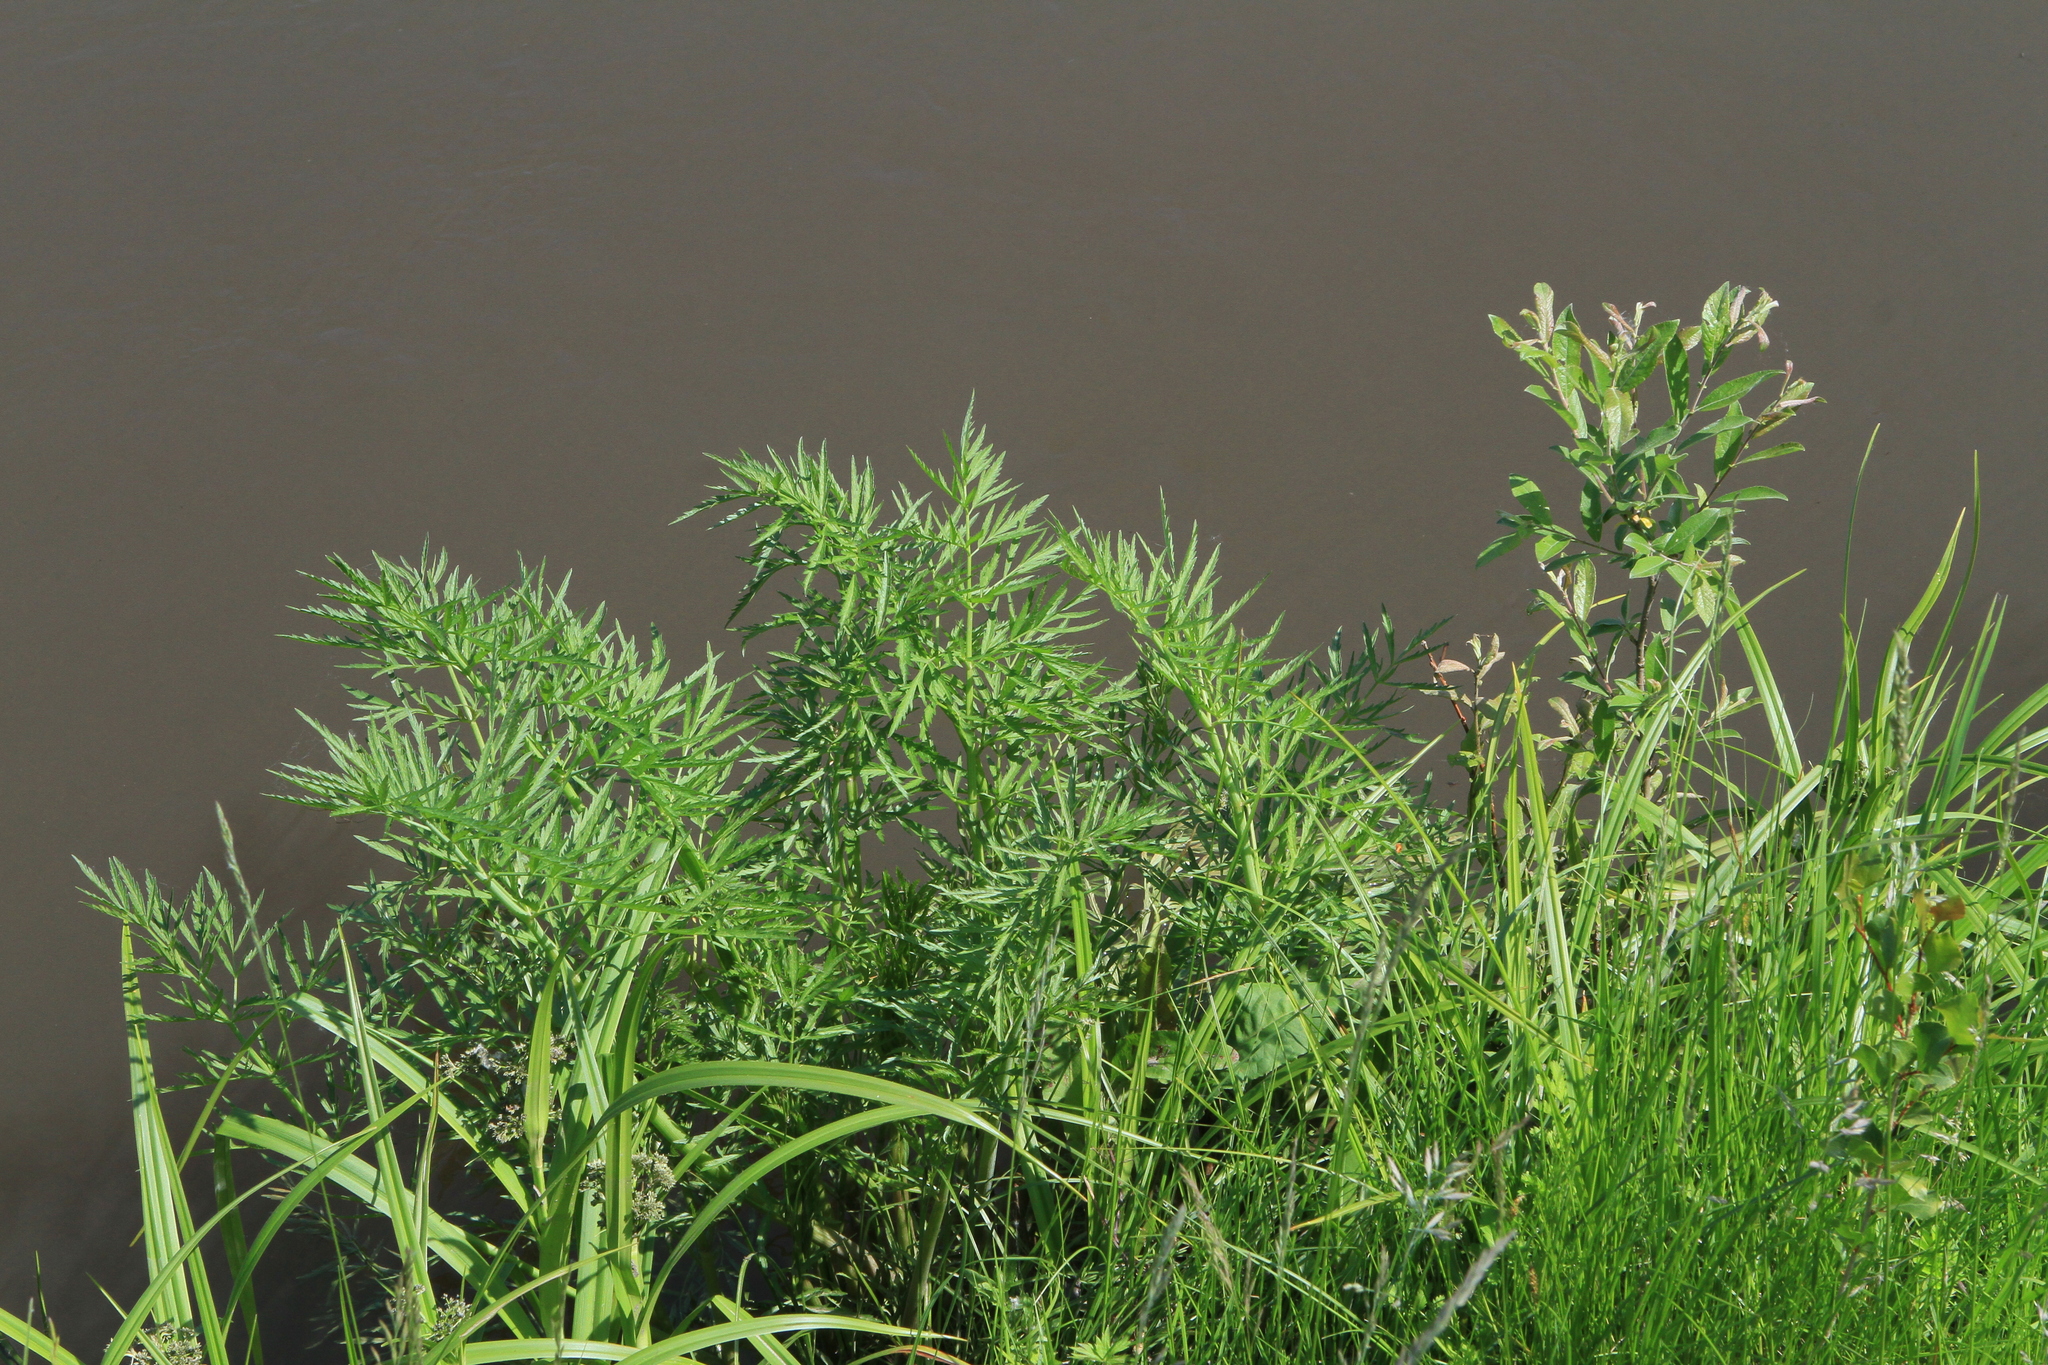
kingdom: Plantae
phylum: Tracheophyta
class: Magnoliopsida
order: Apiales
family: Apiaceae
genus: Cicuta
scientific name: Cicuta virosa
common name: Cowbane
